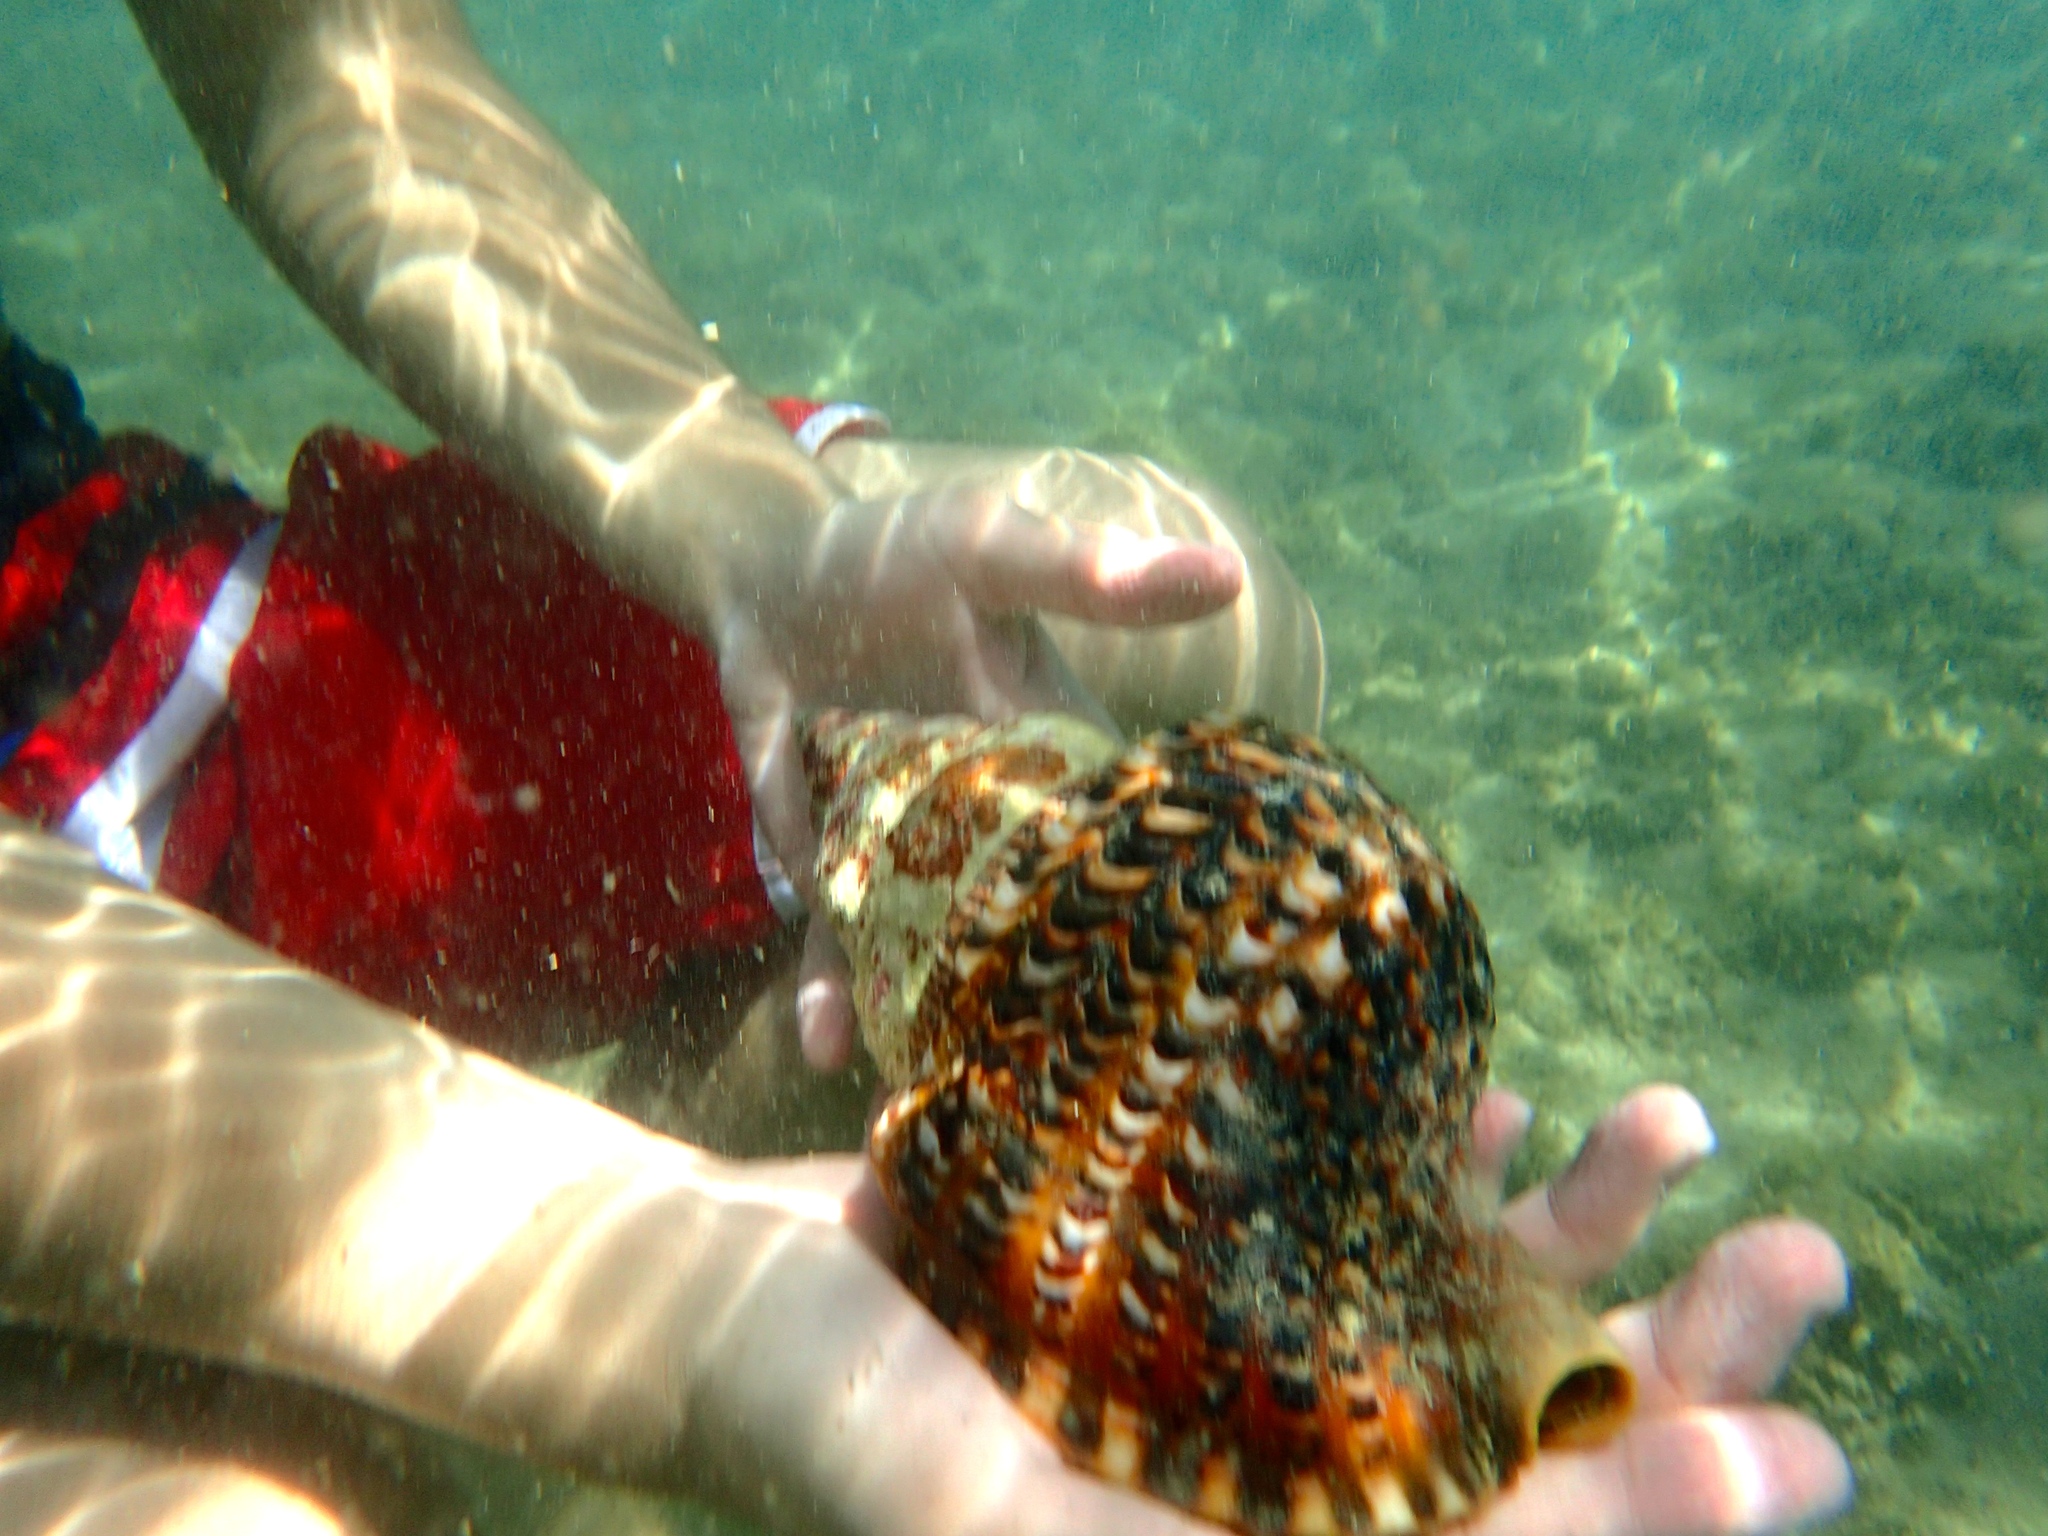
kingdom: Animalia
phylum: Mollusca
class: Gastropoda
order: Littorinimorpha
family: Charoniidae
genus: Charonia
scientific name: Charonia variegata
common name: Atlantic triton
